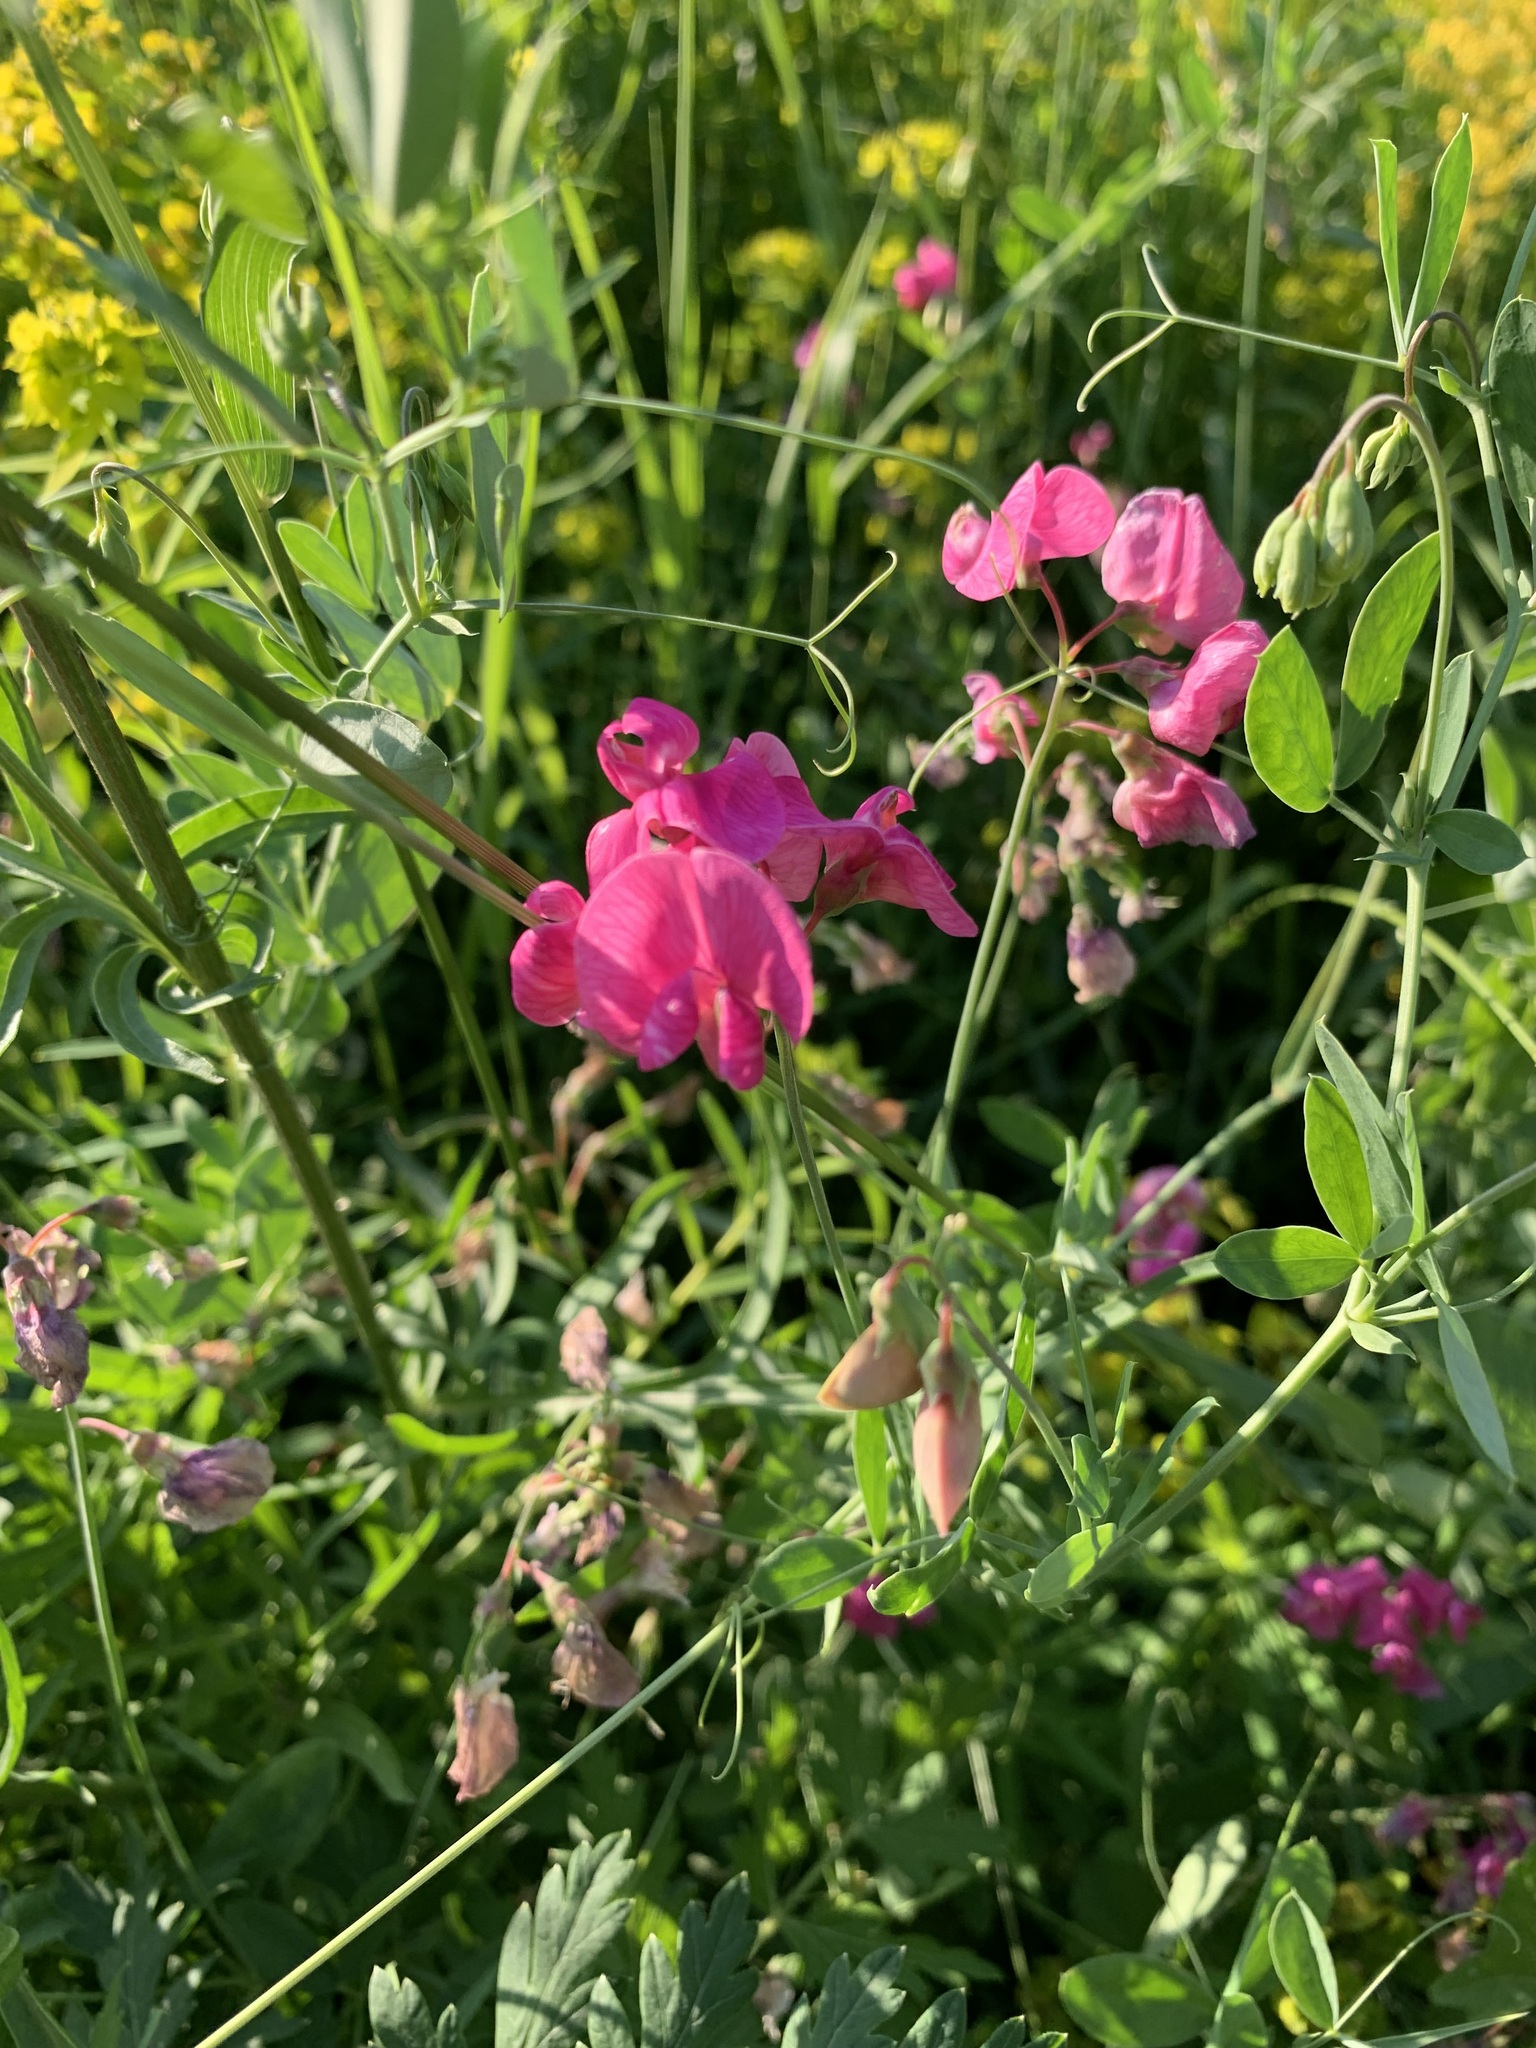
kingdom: Plantae
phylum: Tracheophyta
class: Magnoliopsida
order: Fabales
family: Fabaceae
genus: Lathyrus
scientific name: Lathyrus tuberosus
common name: Tuberous pea
